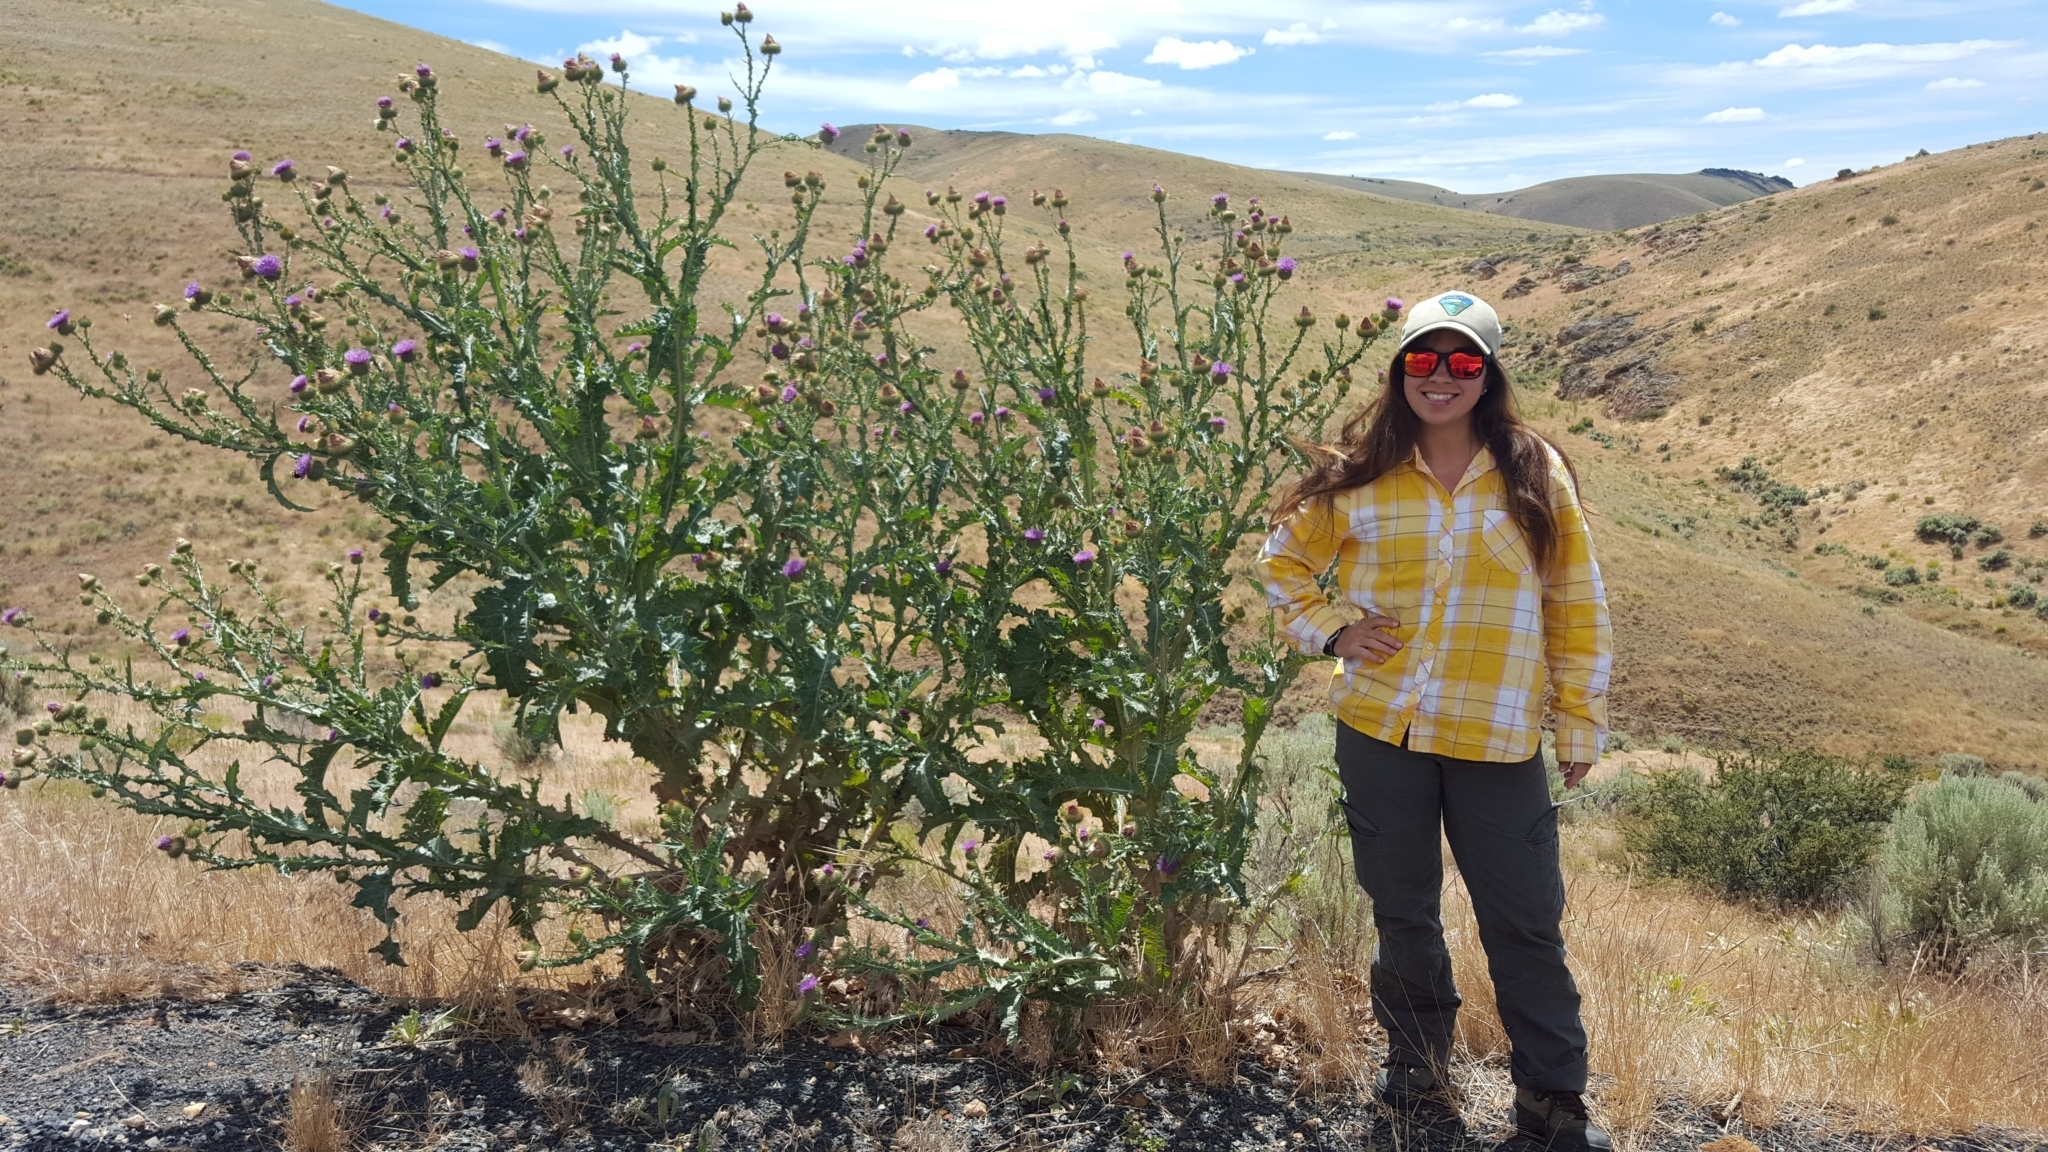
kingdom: Plantae
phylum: Tracheophyta
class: Magnoliopsida
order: Asterales
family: Asteraceae
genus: Onopordum
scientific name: Onopordum acanthium
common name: Scotch thistle
